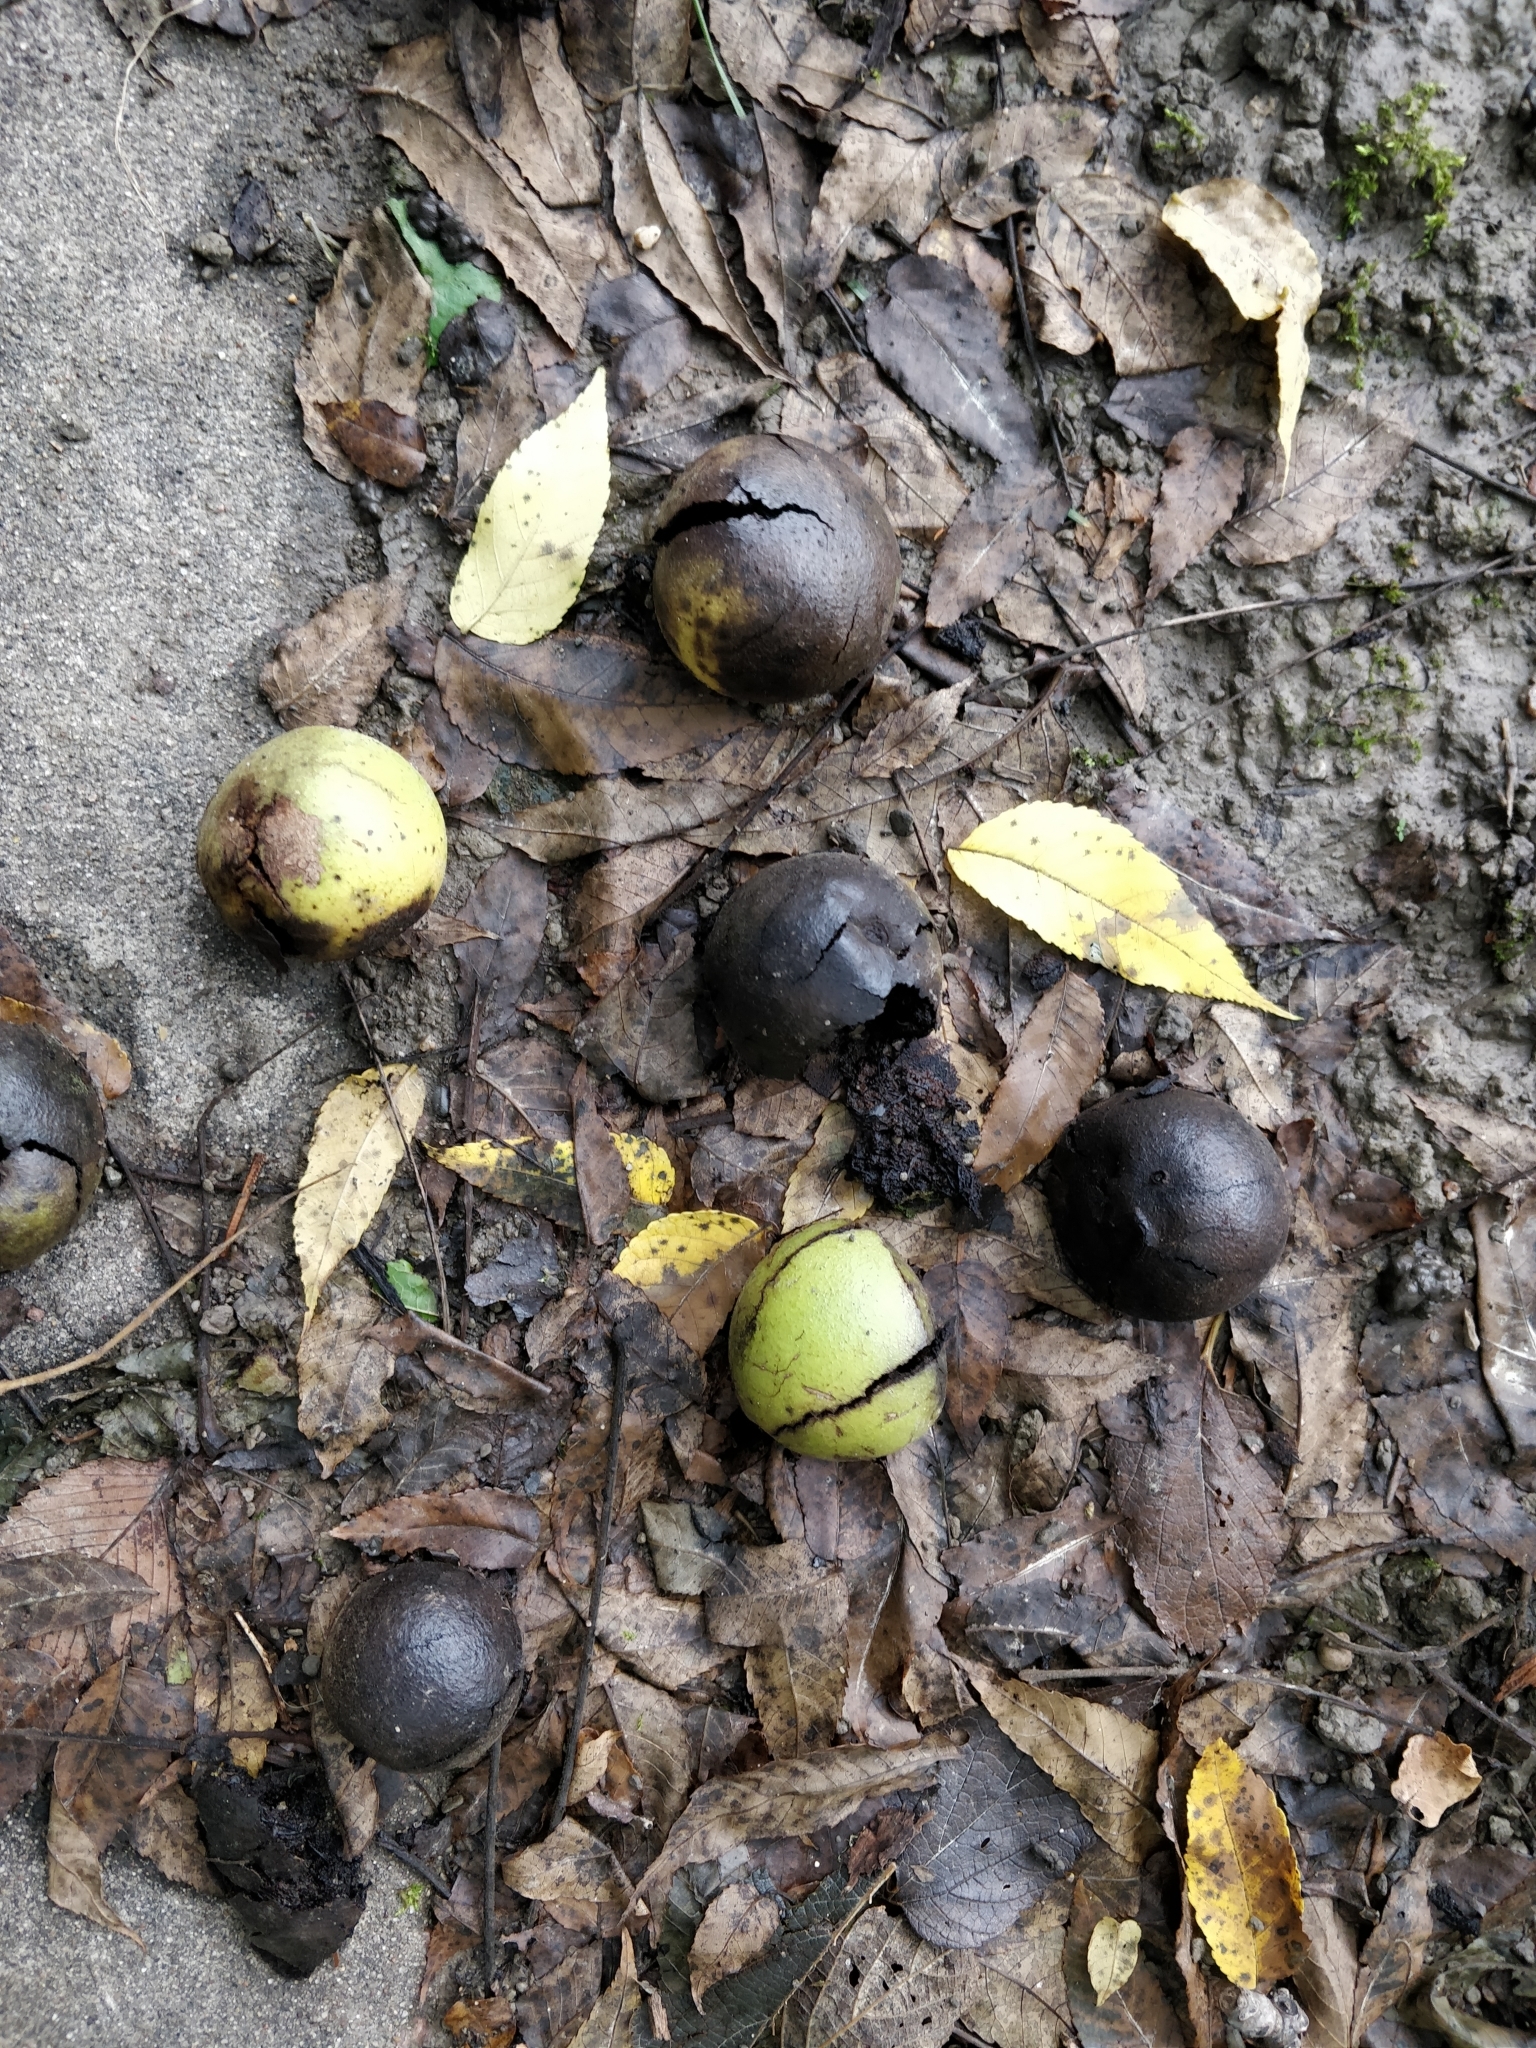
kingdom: Plantae
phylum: Tracheophyta
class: Magnoliopsida
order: Fagales
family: Juglandaceae
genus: Juglans
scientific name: Juglans nigra
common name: Black walnut
